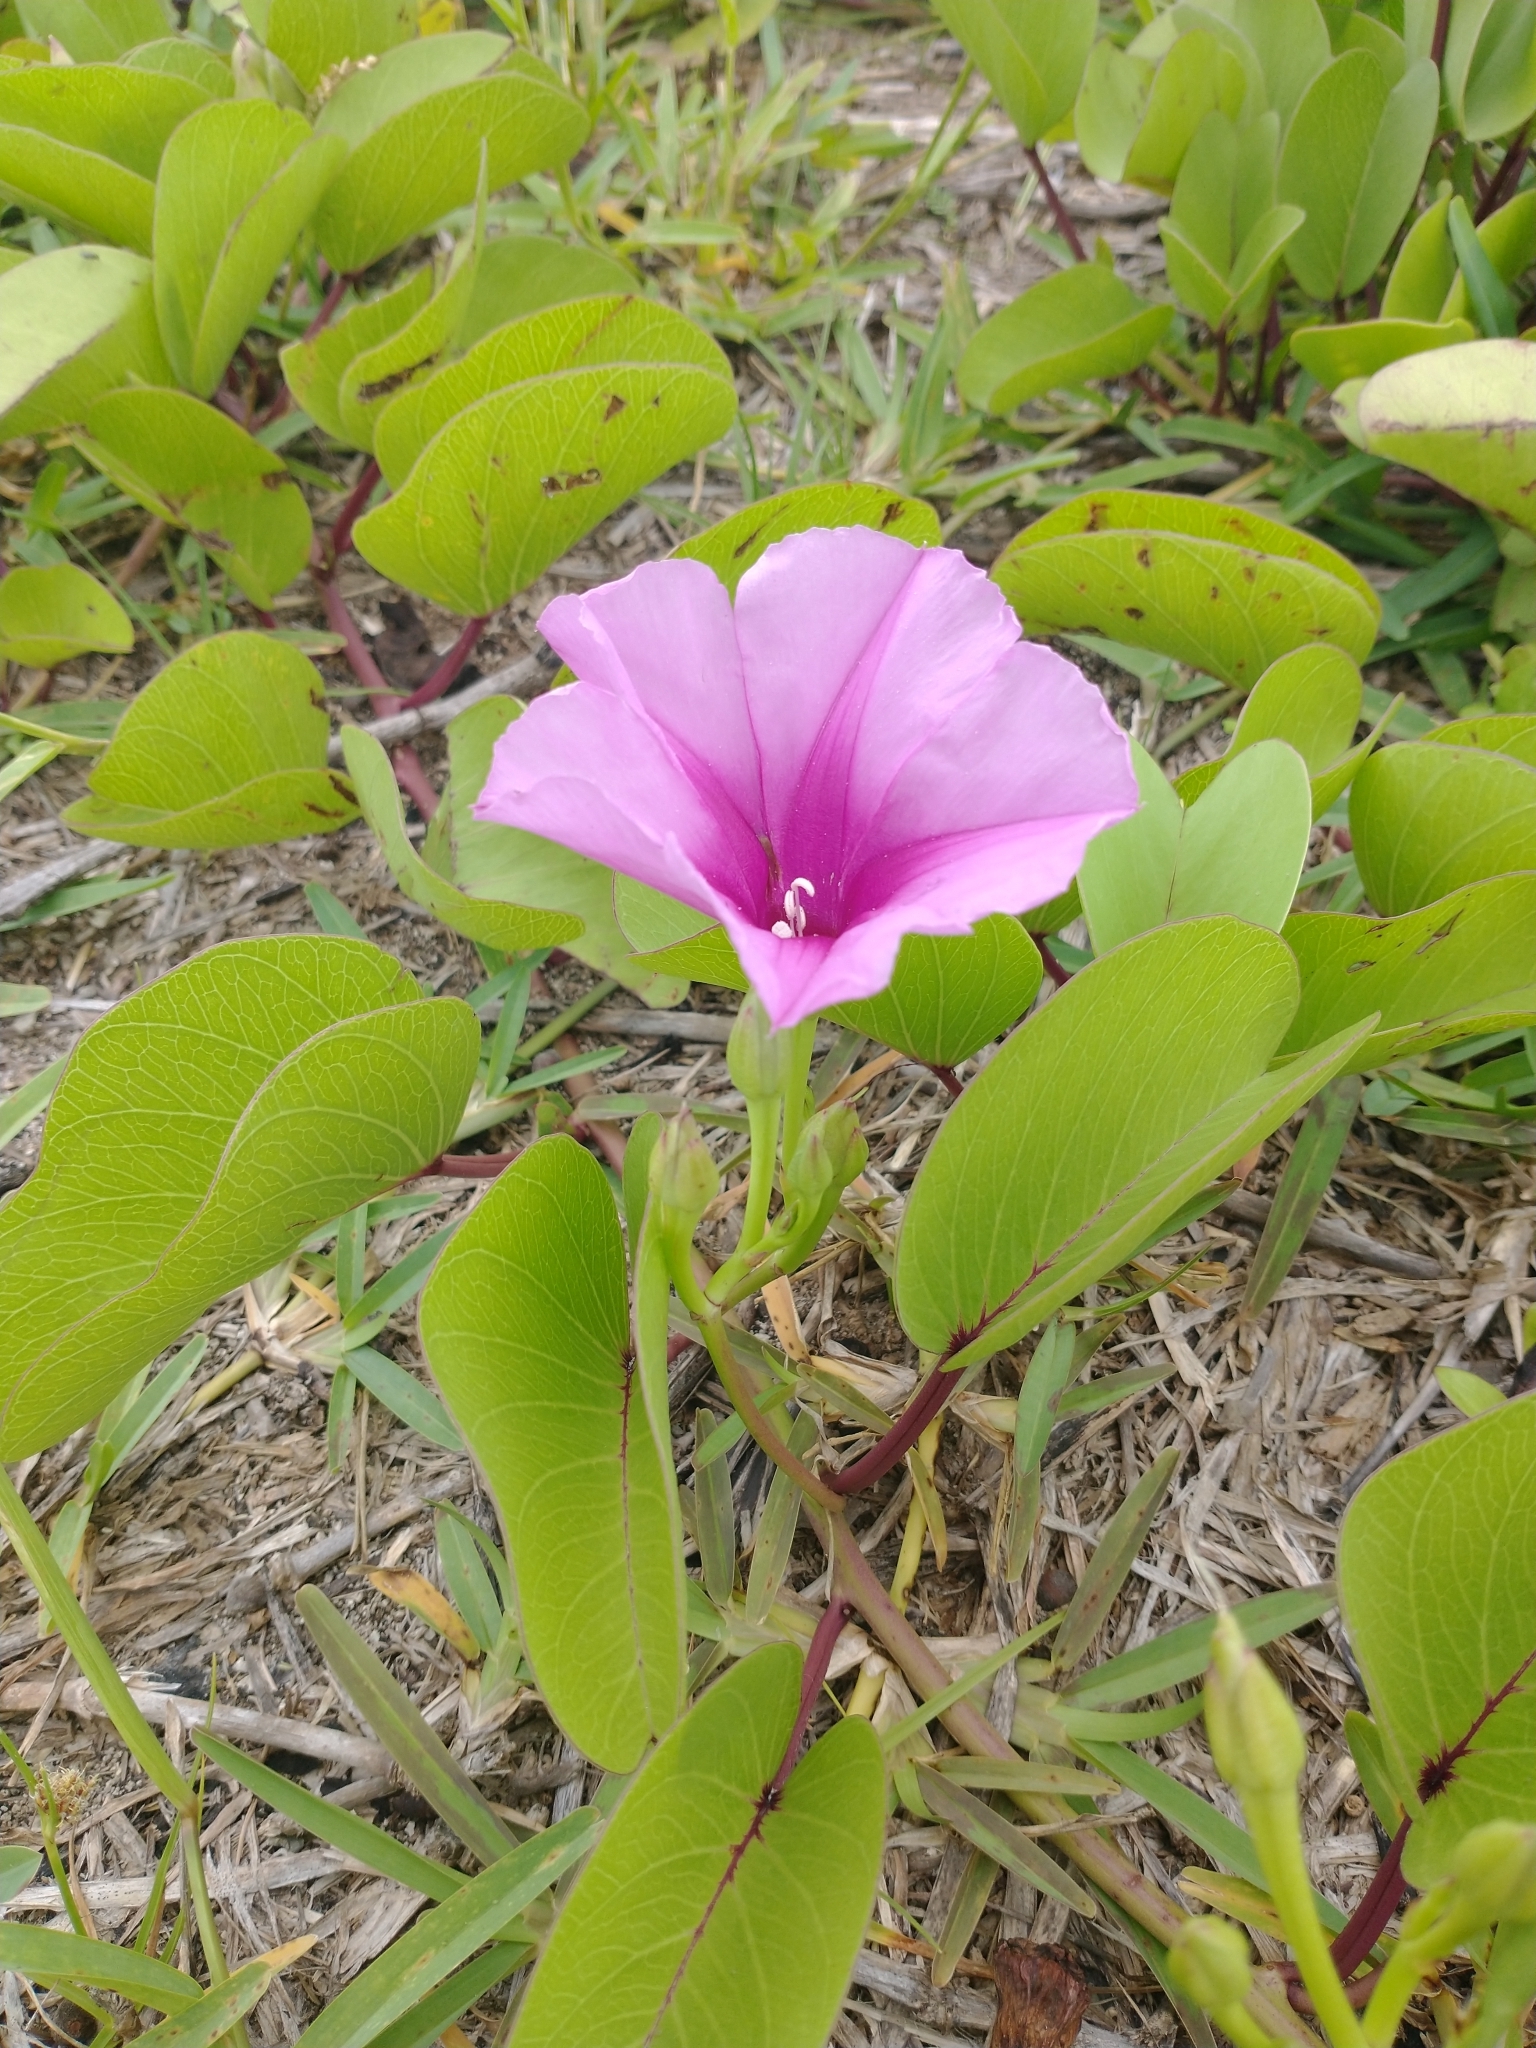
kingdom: Plantae
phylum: Tracheophyta
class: Magnoliopsida
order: Solanales
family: Convolvulaceae
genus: Ipomoea
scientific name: Ipomoea pes-caprae
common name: Beach morning glory
